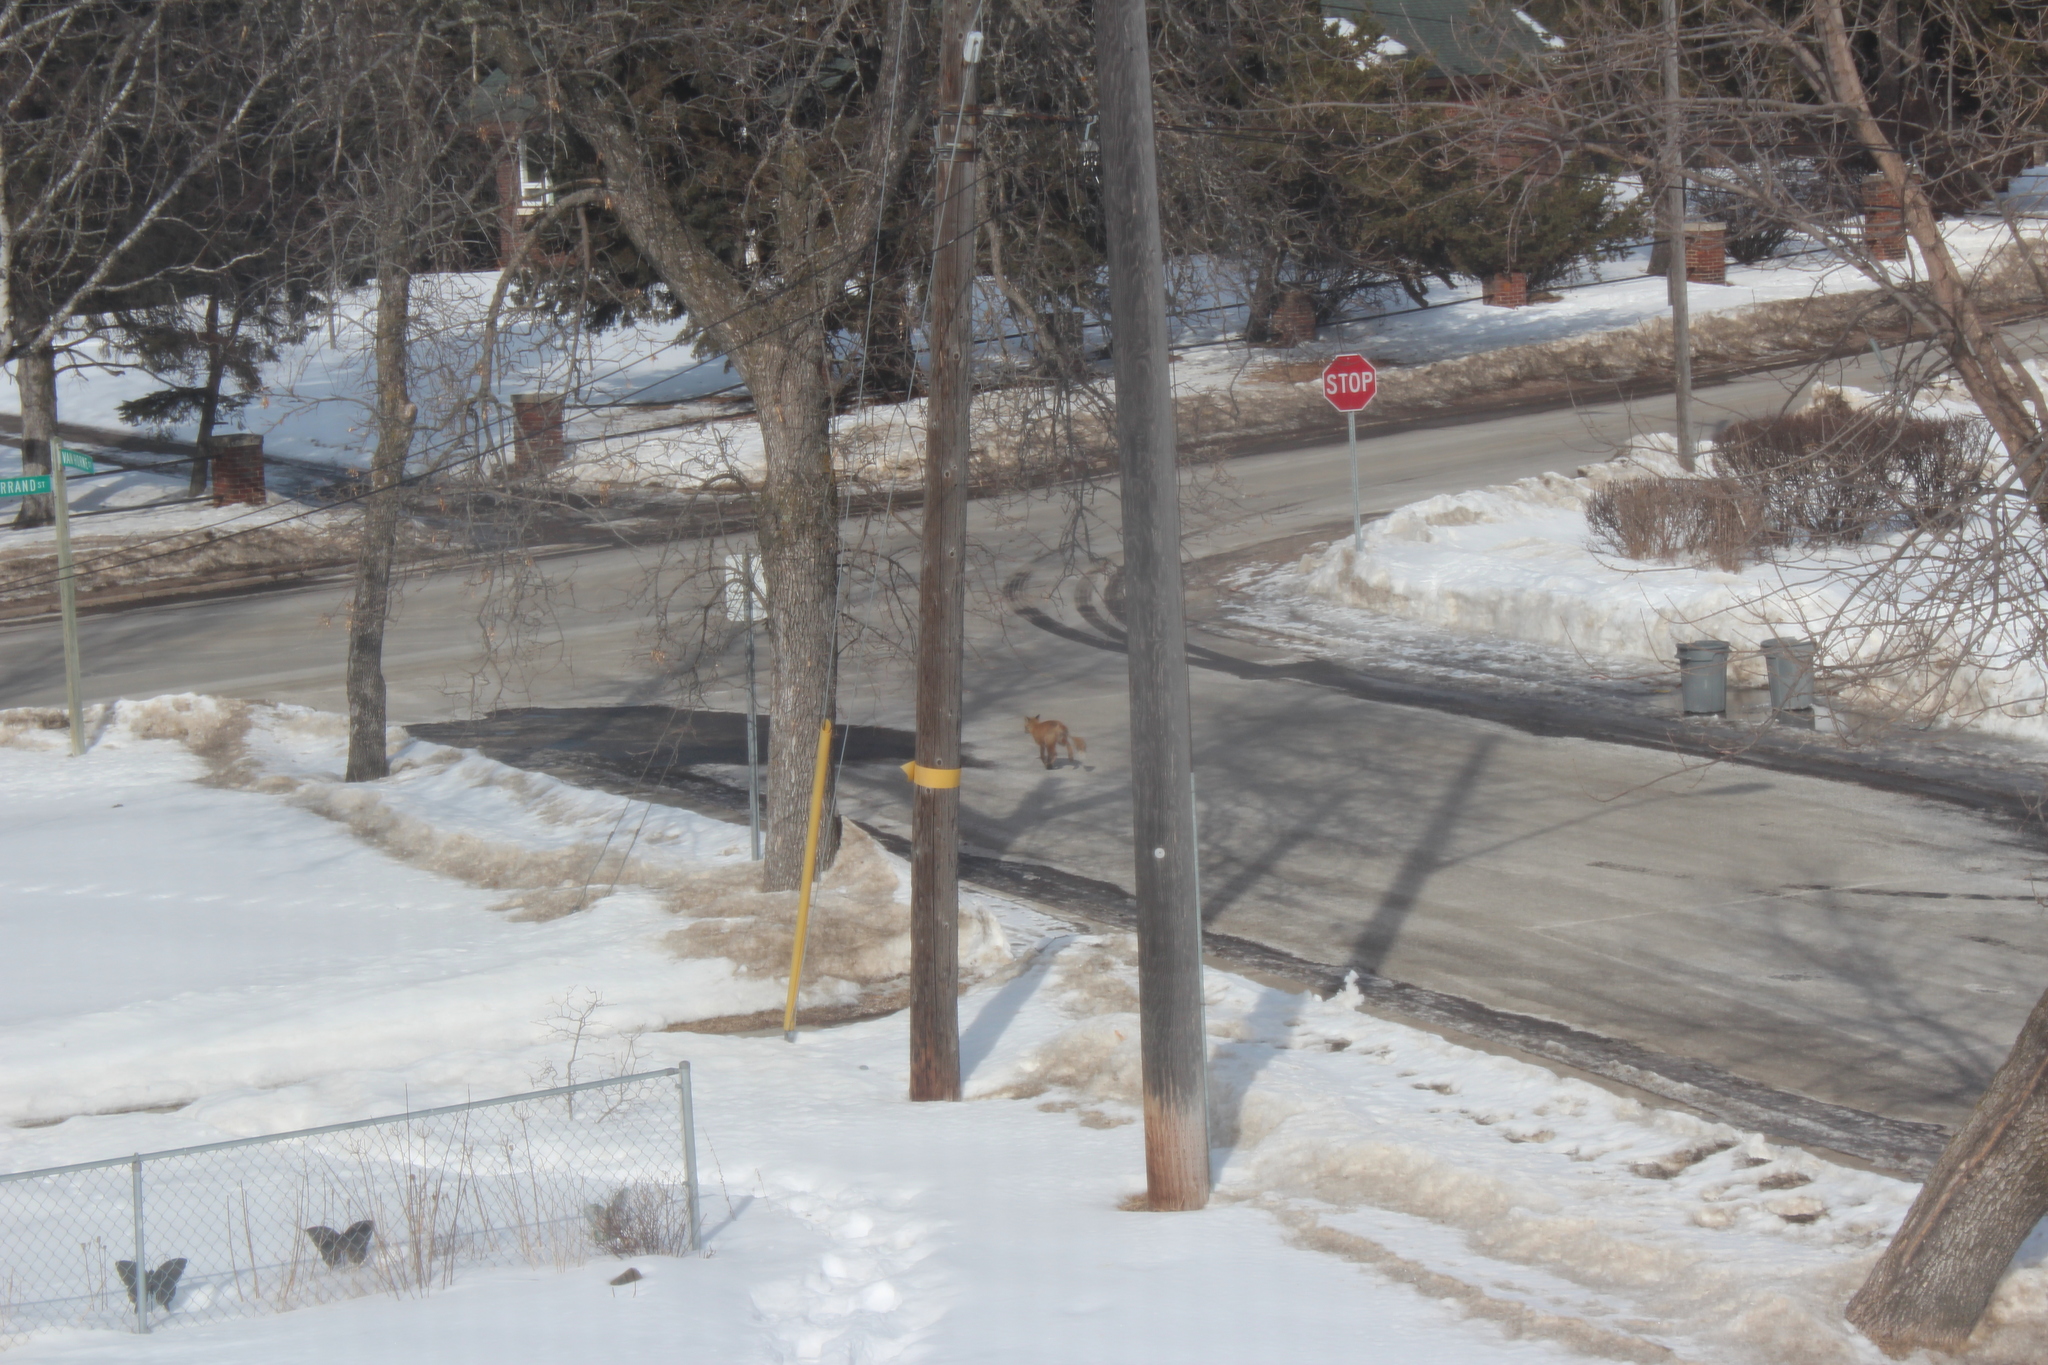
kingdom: Animalia
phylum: Chordata
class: Mammalia
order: Carnivora
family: Canidae
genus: Vulpes
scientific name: Vulpes vulpes
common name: Red fox
